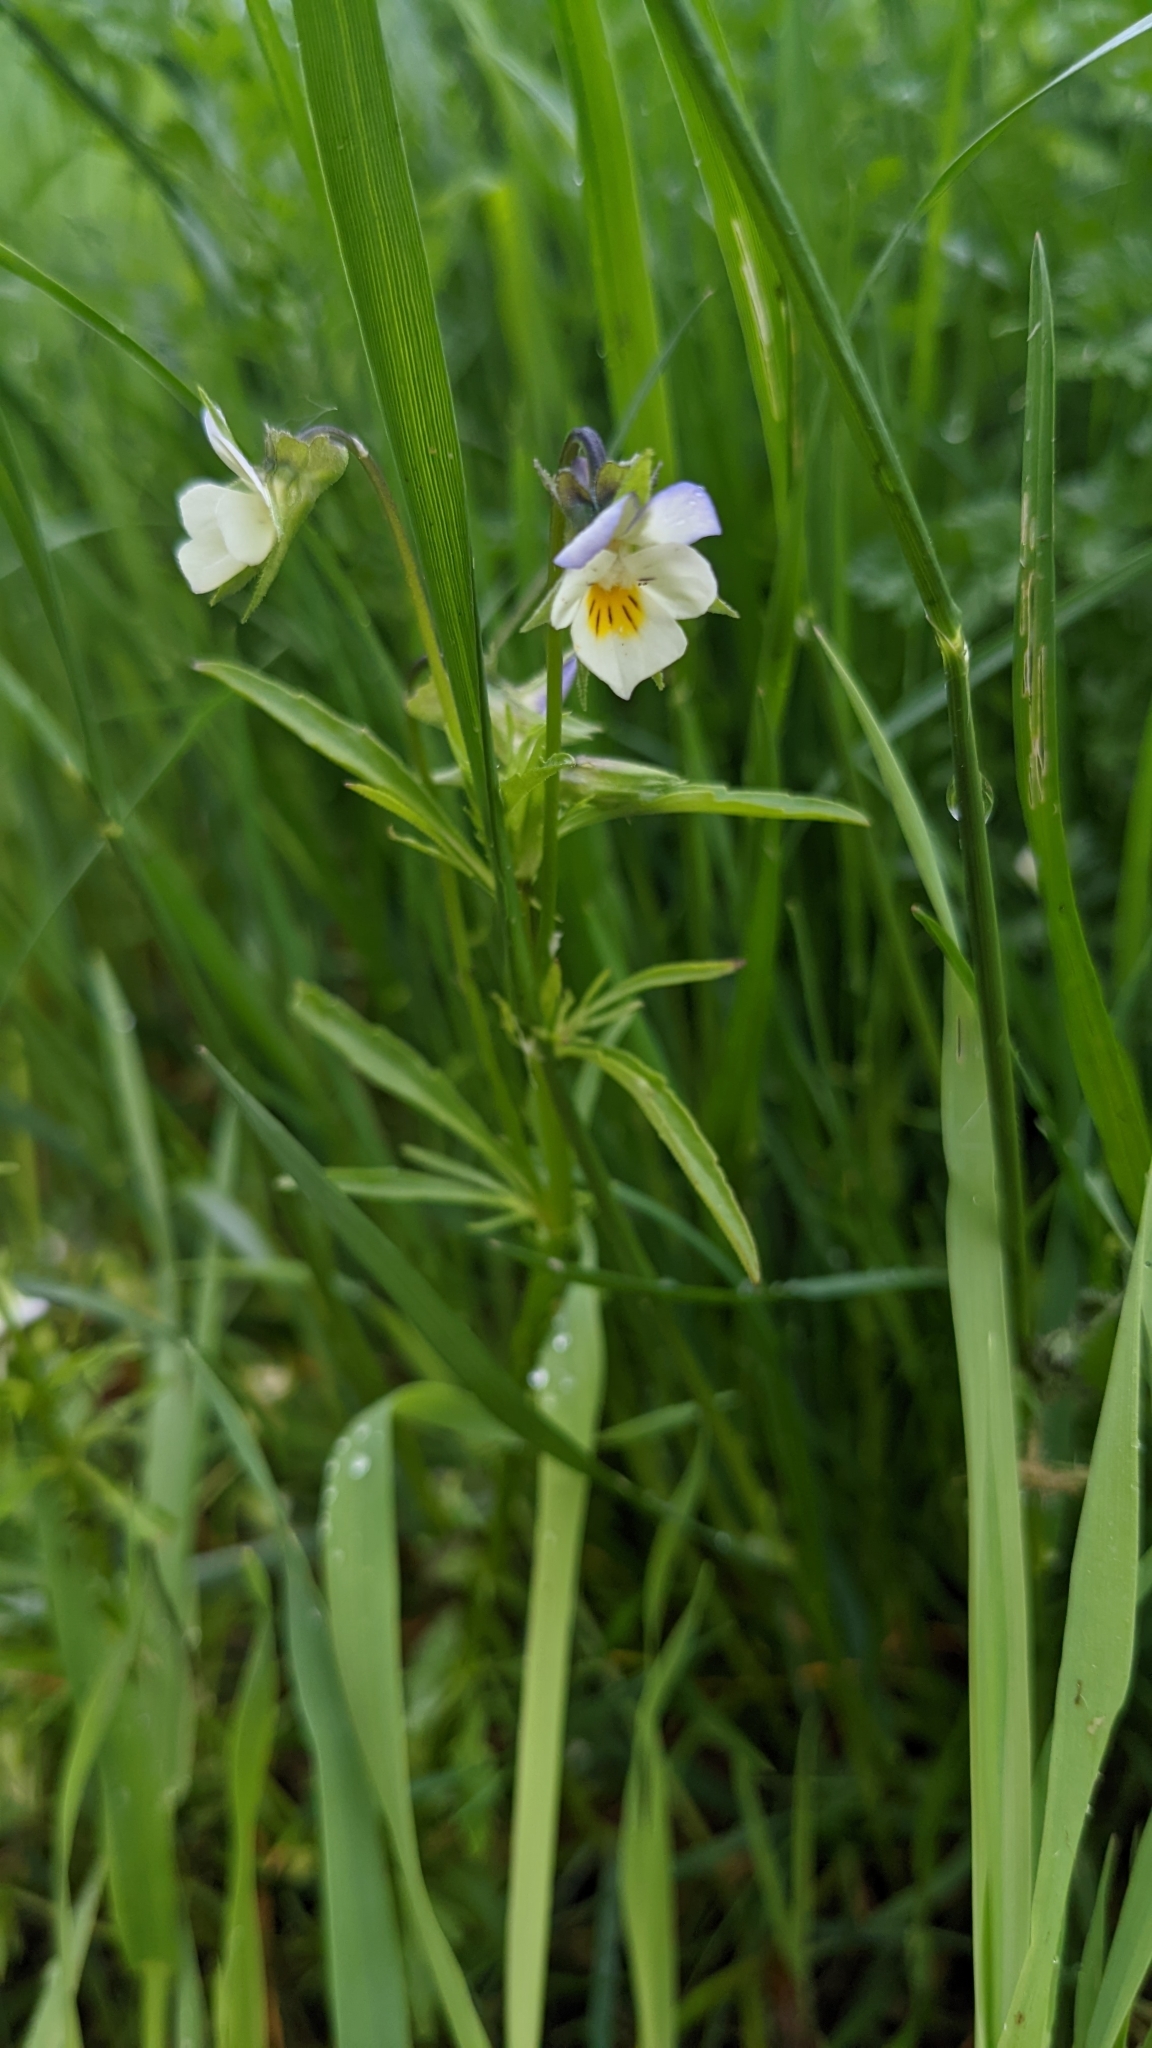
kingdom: Plantae
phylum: Tracheophyta
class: Magnoliopsida
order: Malpighiales
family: Violaceae
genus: Viola
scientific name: Viola arvensis
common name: Field pansy
